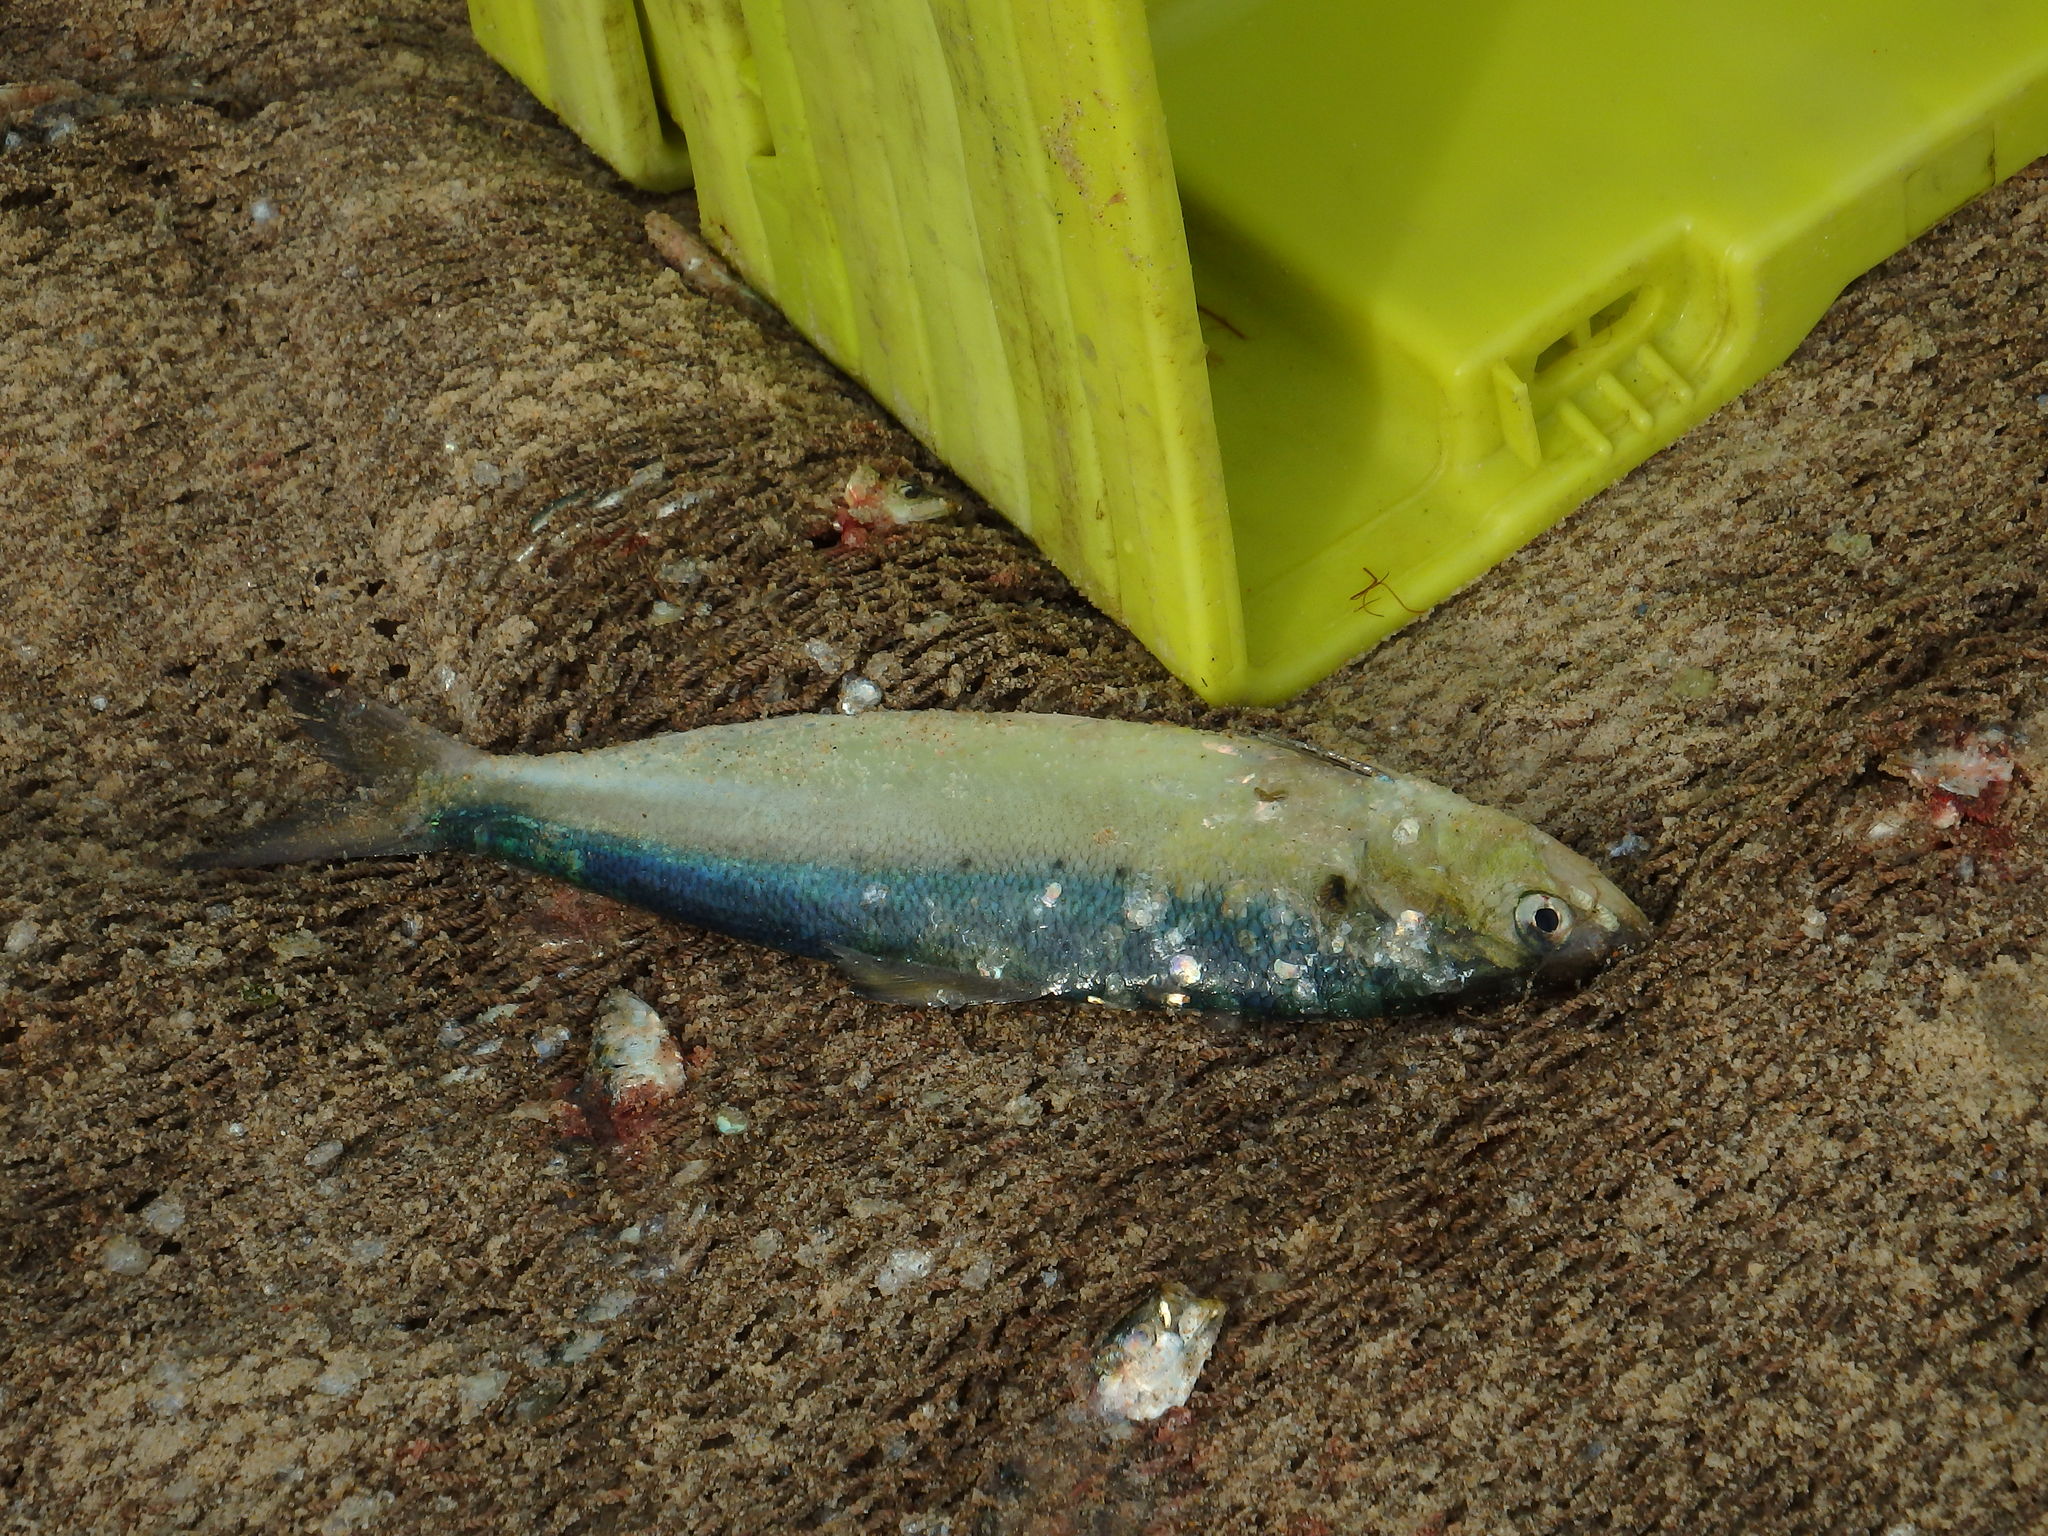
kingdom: Animalia
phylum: Chordata
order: Clupeiformes
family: Clupeidae
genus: Alosa
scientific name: Alosa fallax
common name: Twaite shad
